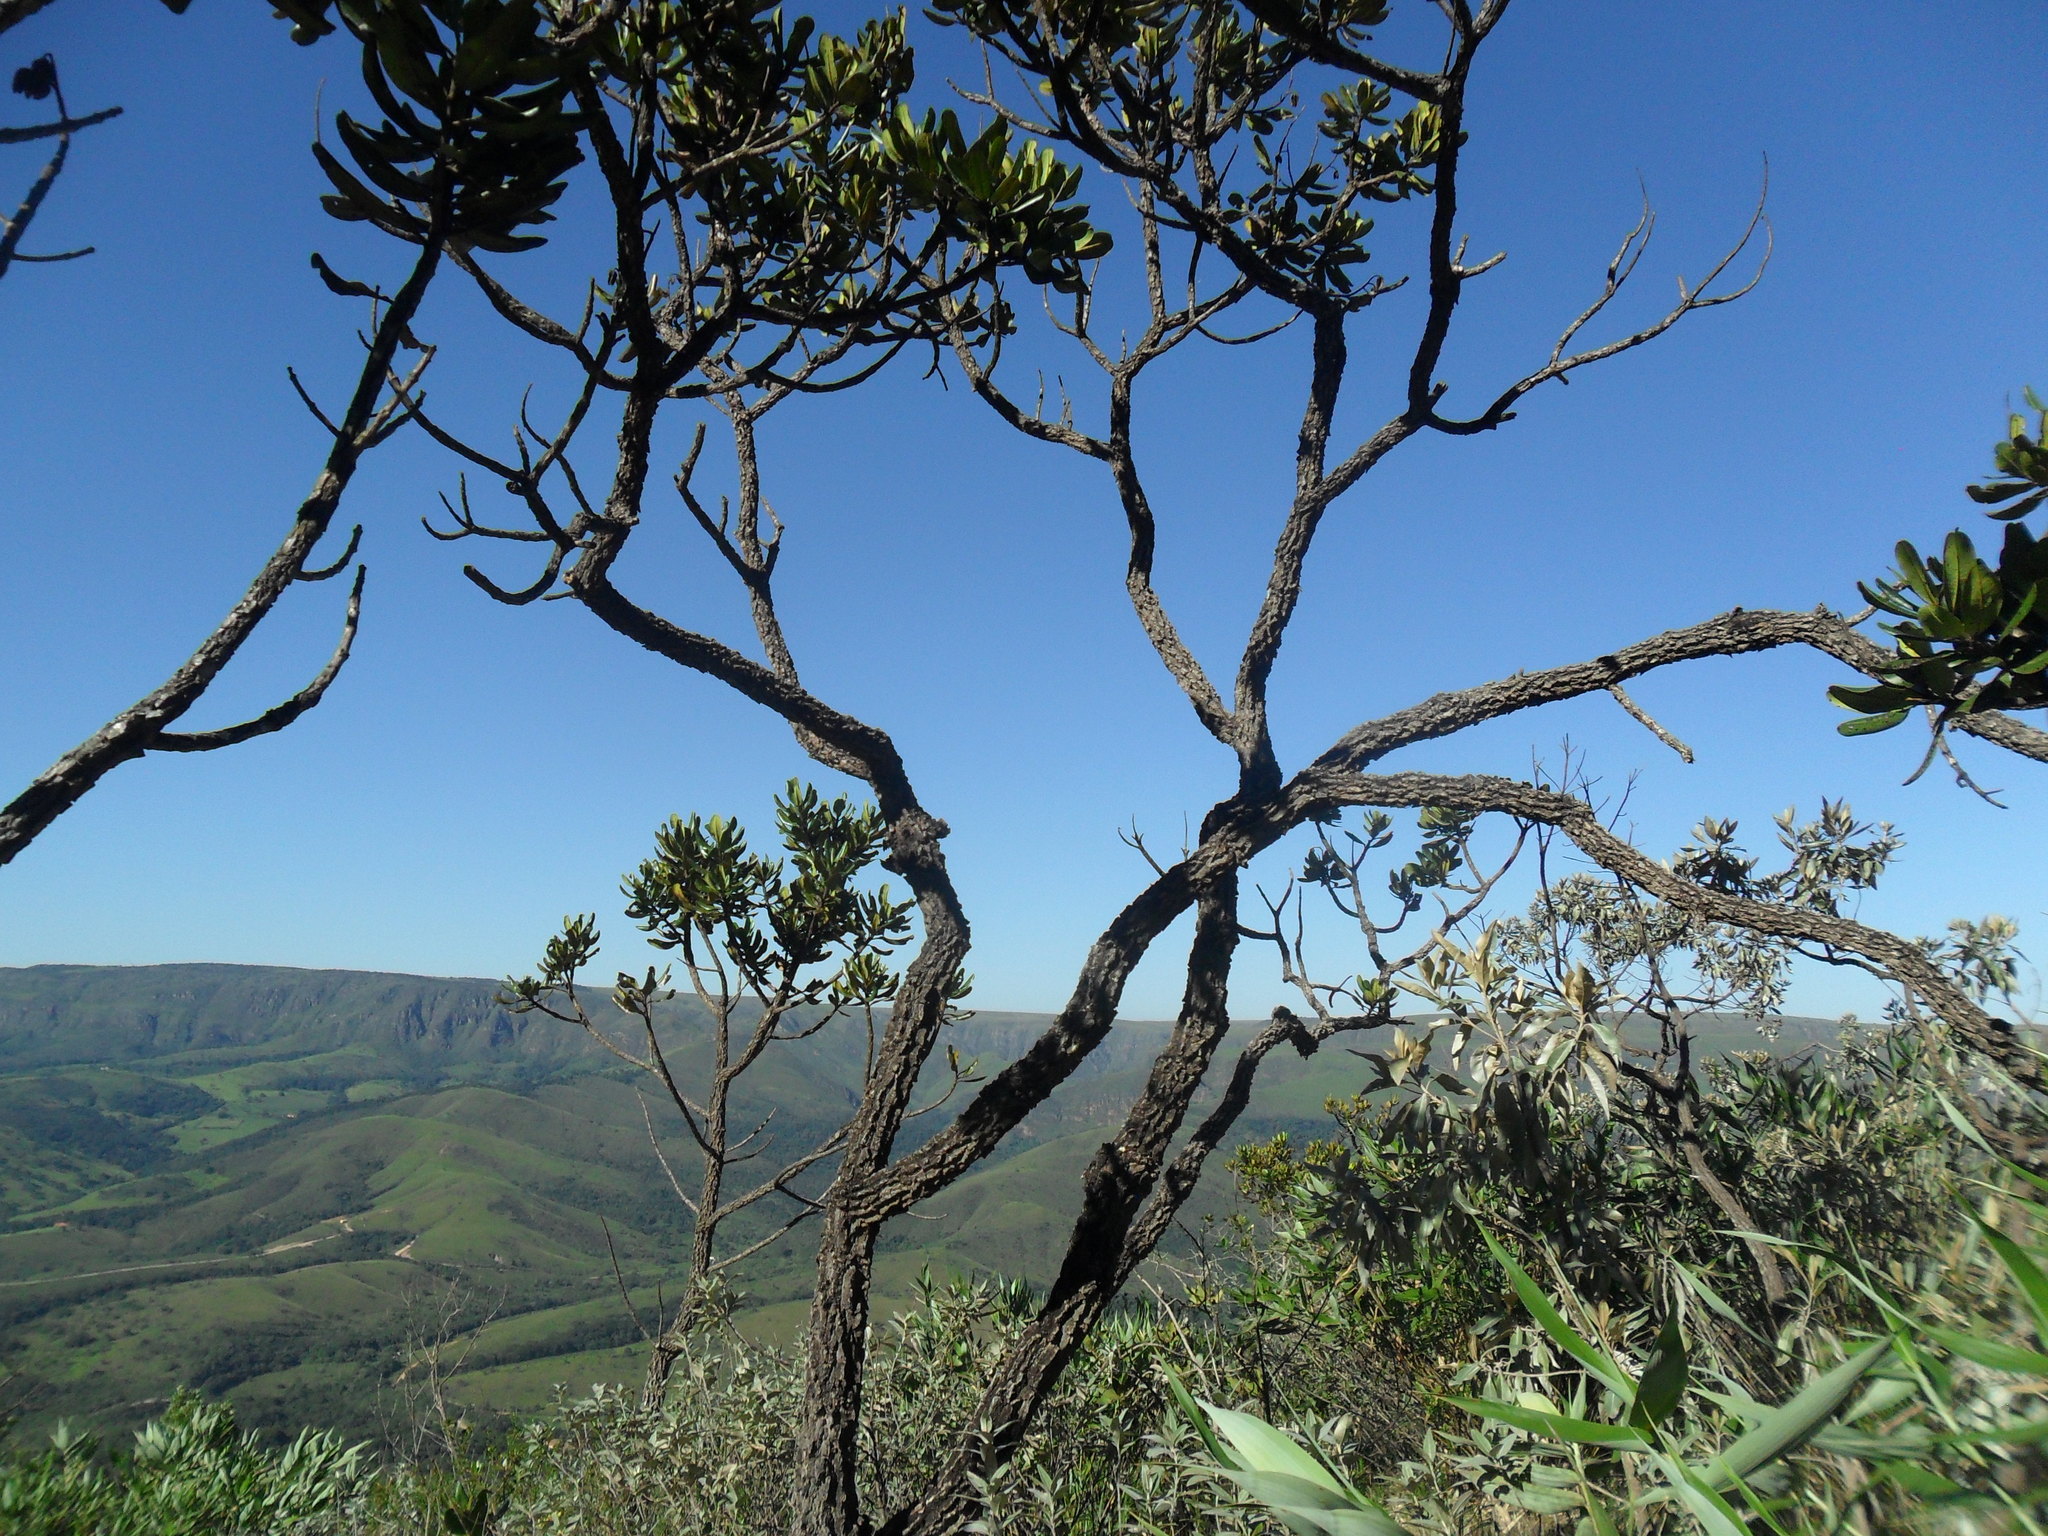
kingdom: Plantae
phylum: Tracheophyta
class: Magnoliopsida
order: Myrtales
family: Vochysiaceae
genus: Vochysia
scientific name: Vochysia thyrsoidea
